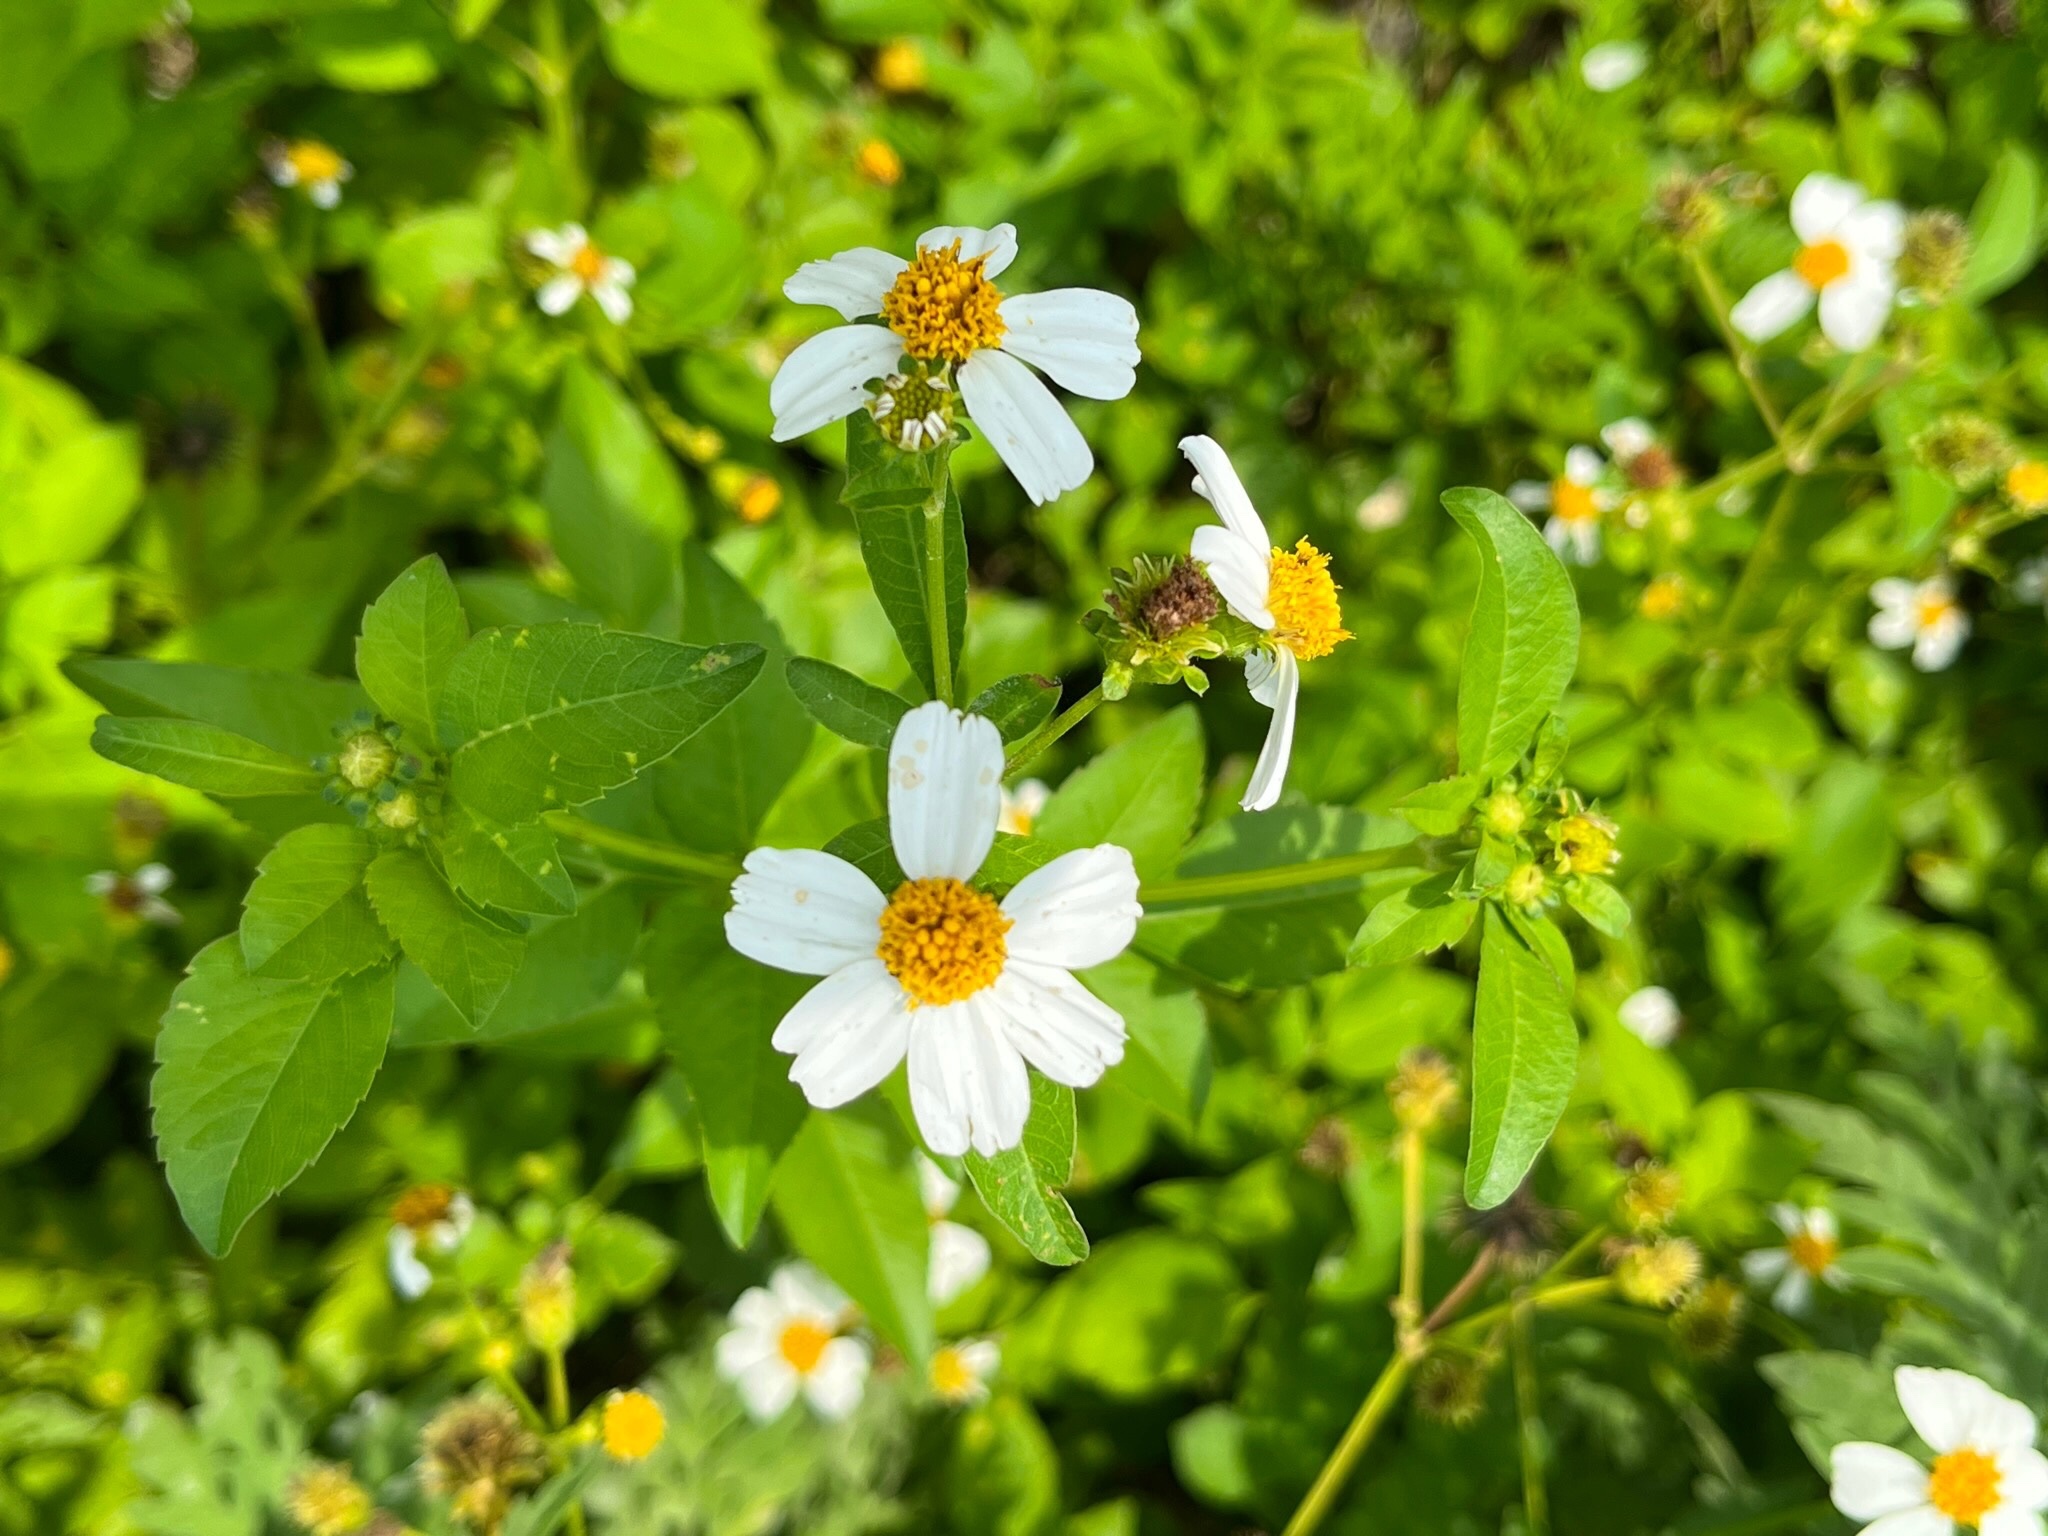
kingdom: Plantae
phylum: Tracheophyta
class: Magnoliopsida
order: Asterales
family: Asteraceae
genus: Bidens
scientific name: Bidens alba
